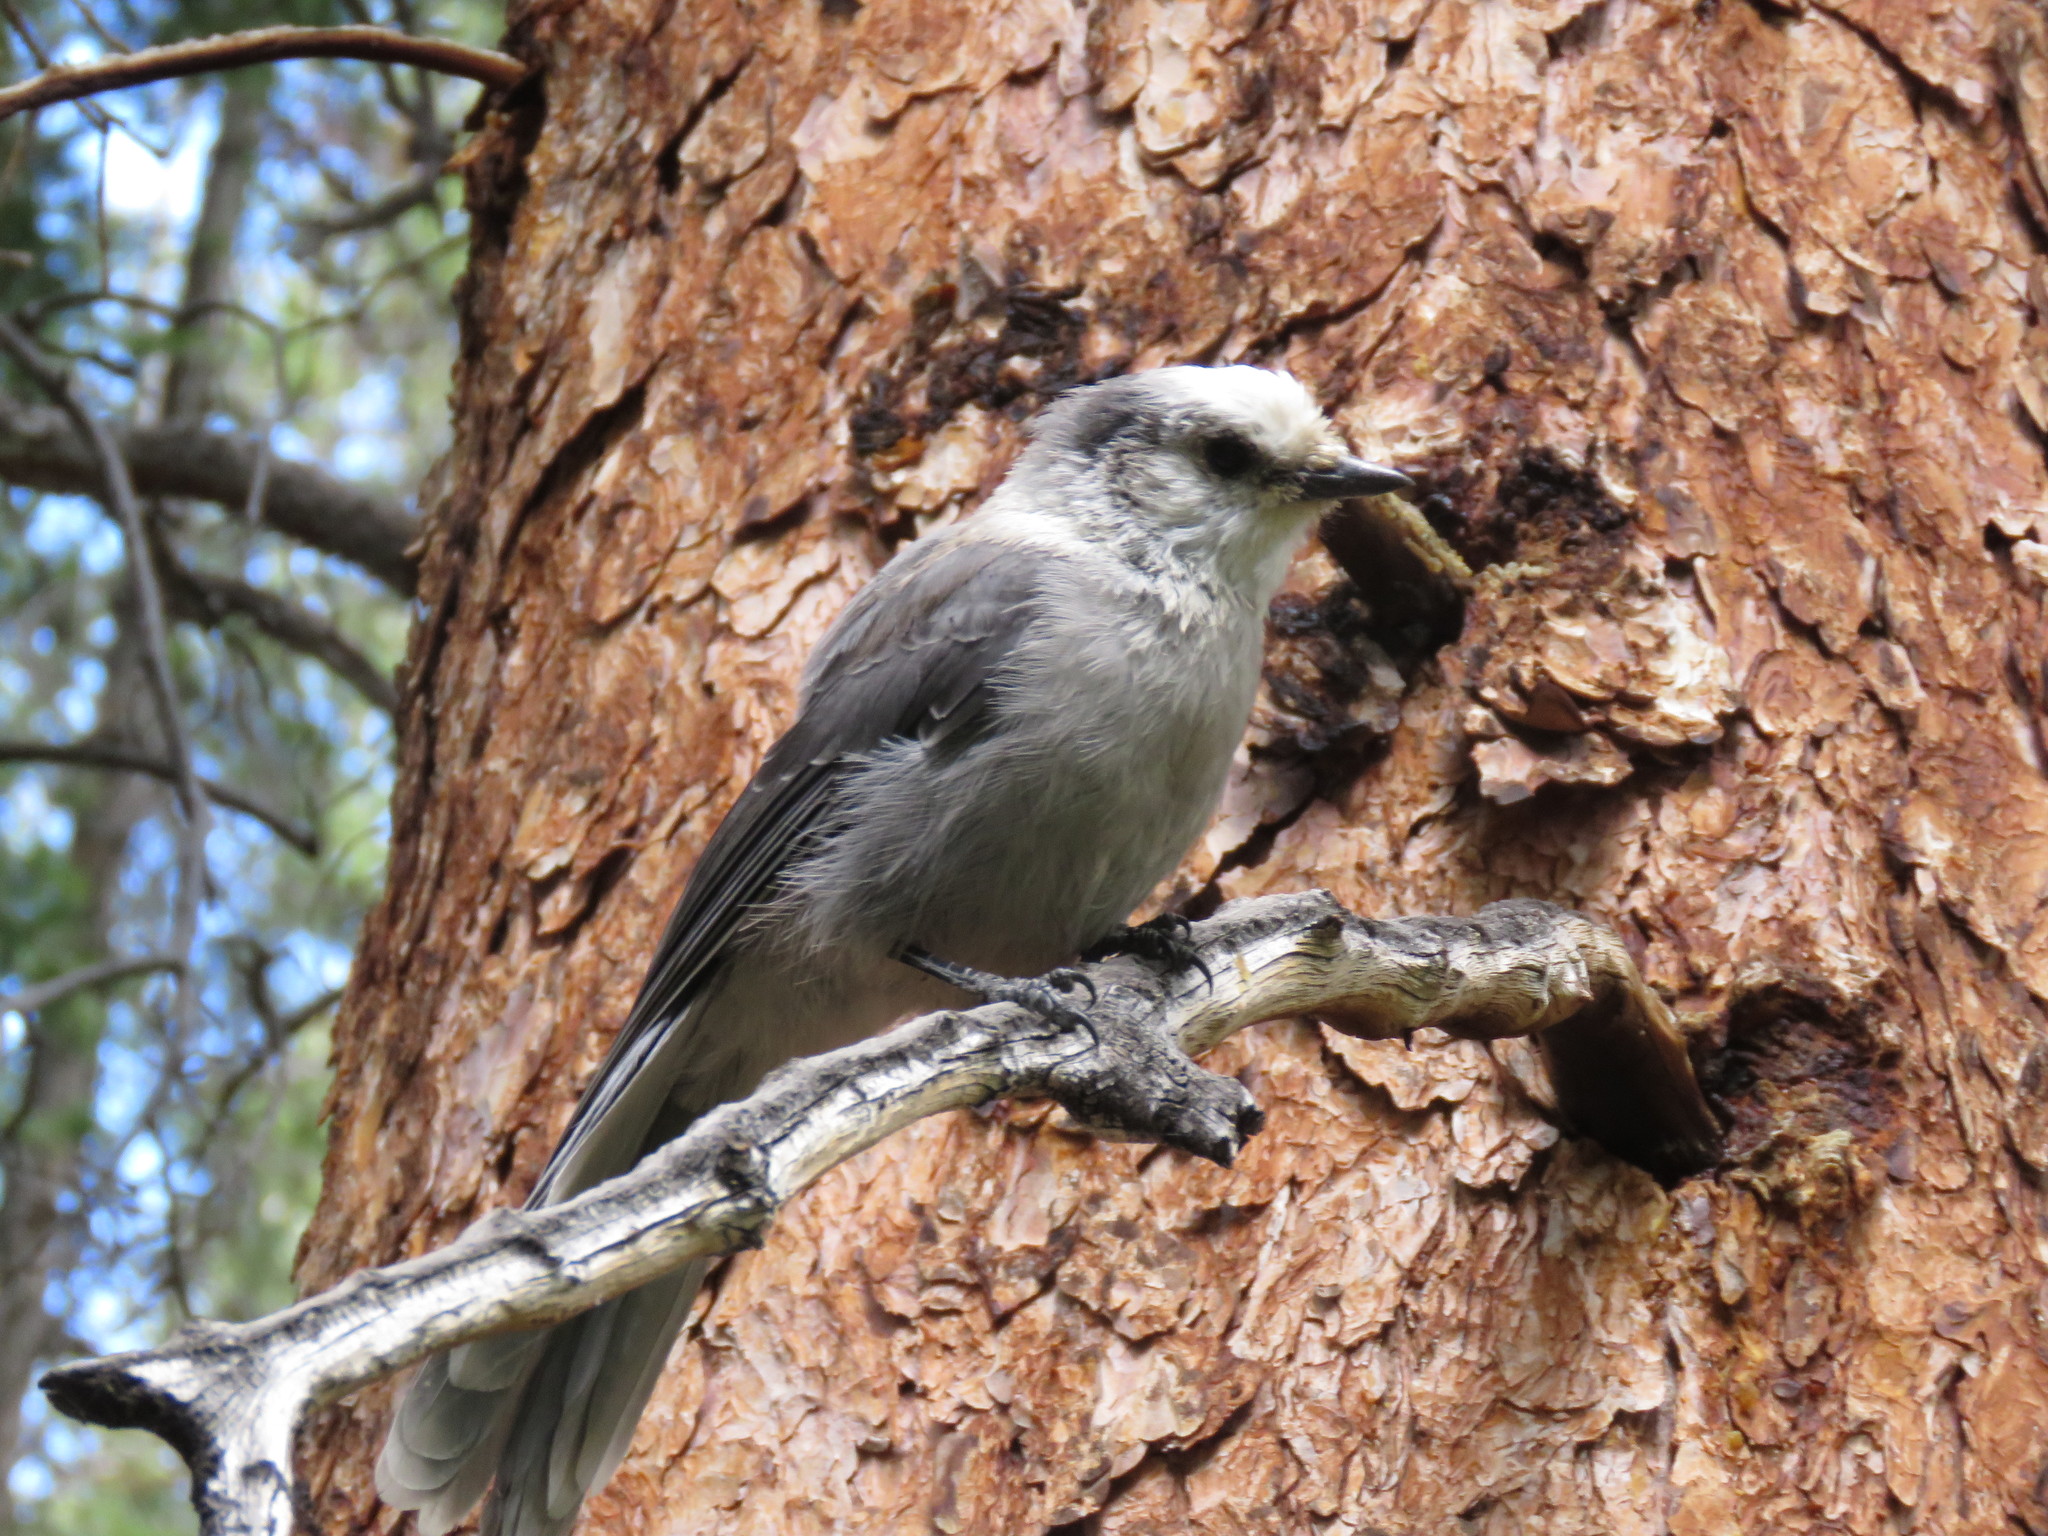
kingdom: Animalia
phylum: Chordata
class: Aves
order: Passeriformes
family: Corvidae
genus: Perisoreus
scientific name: Perisoreus canadensis
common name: Gray jay
